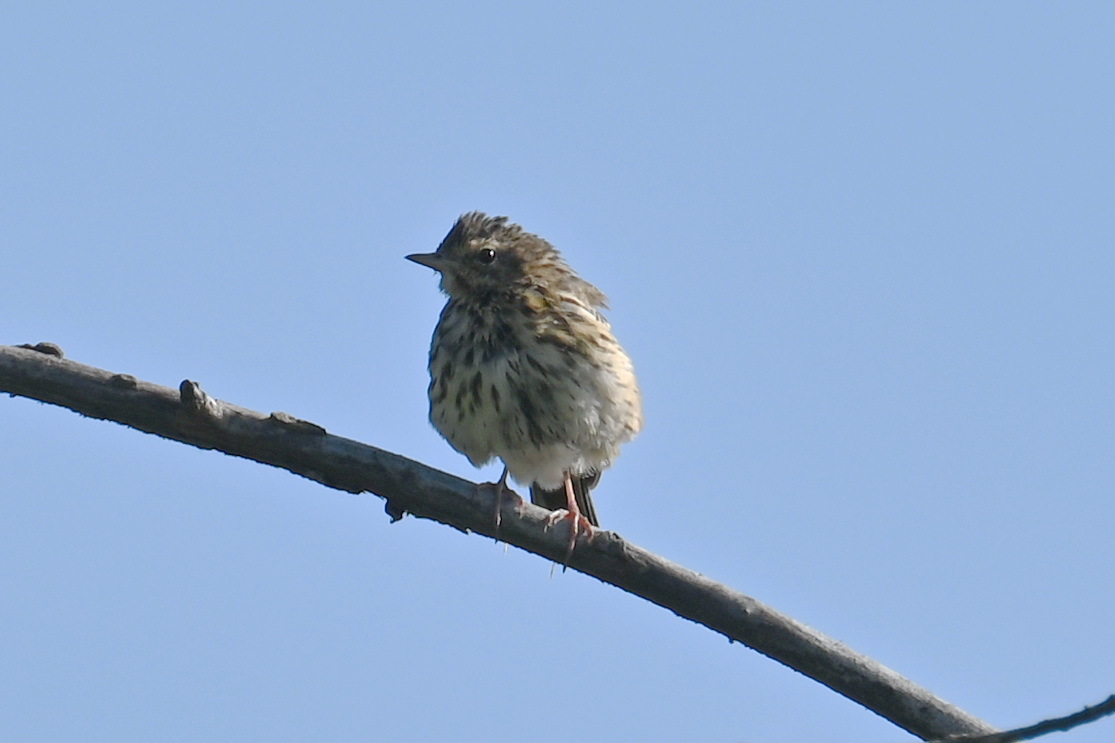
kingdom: Animalia
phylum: Chordata
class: Aves
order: Passeriformes
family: Motacillidae
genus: Anthus
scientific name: Anthus trivialis
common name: Tree pipit
